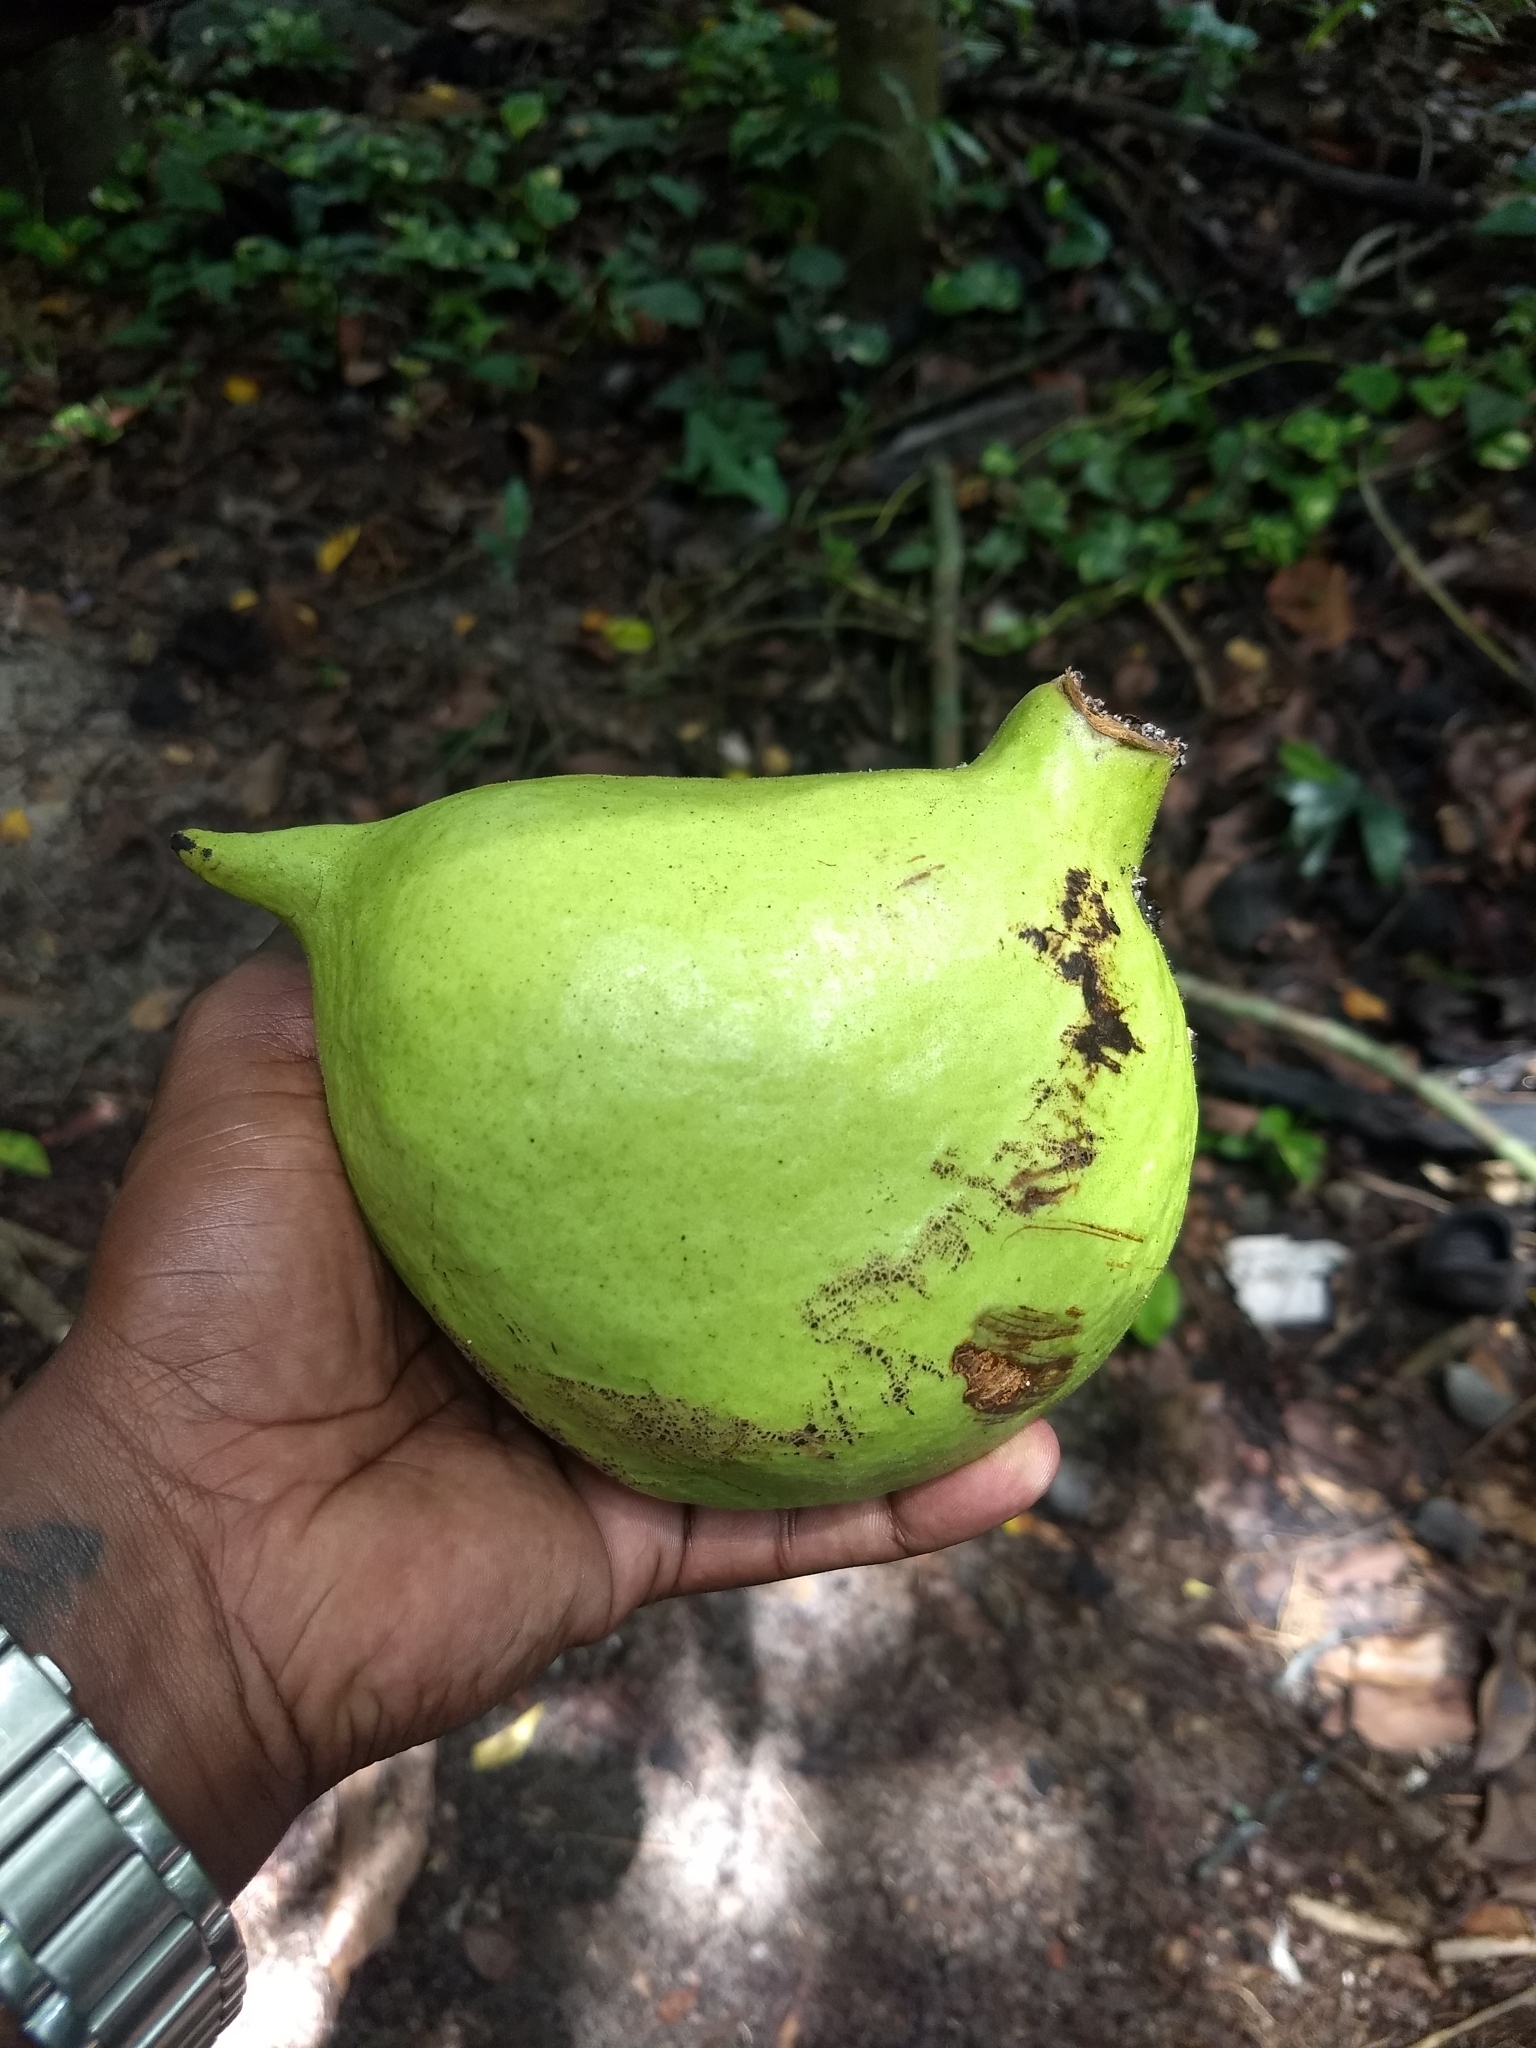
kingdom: Plantae
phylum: Tracheophyta
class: Magnoliopsida
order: Malvales
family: Malvaceae
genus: Sterculia
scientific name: Sterculia foetida
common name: Hazel sterculia
